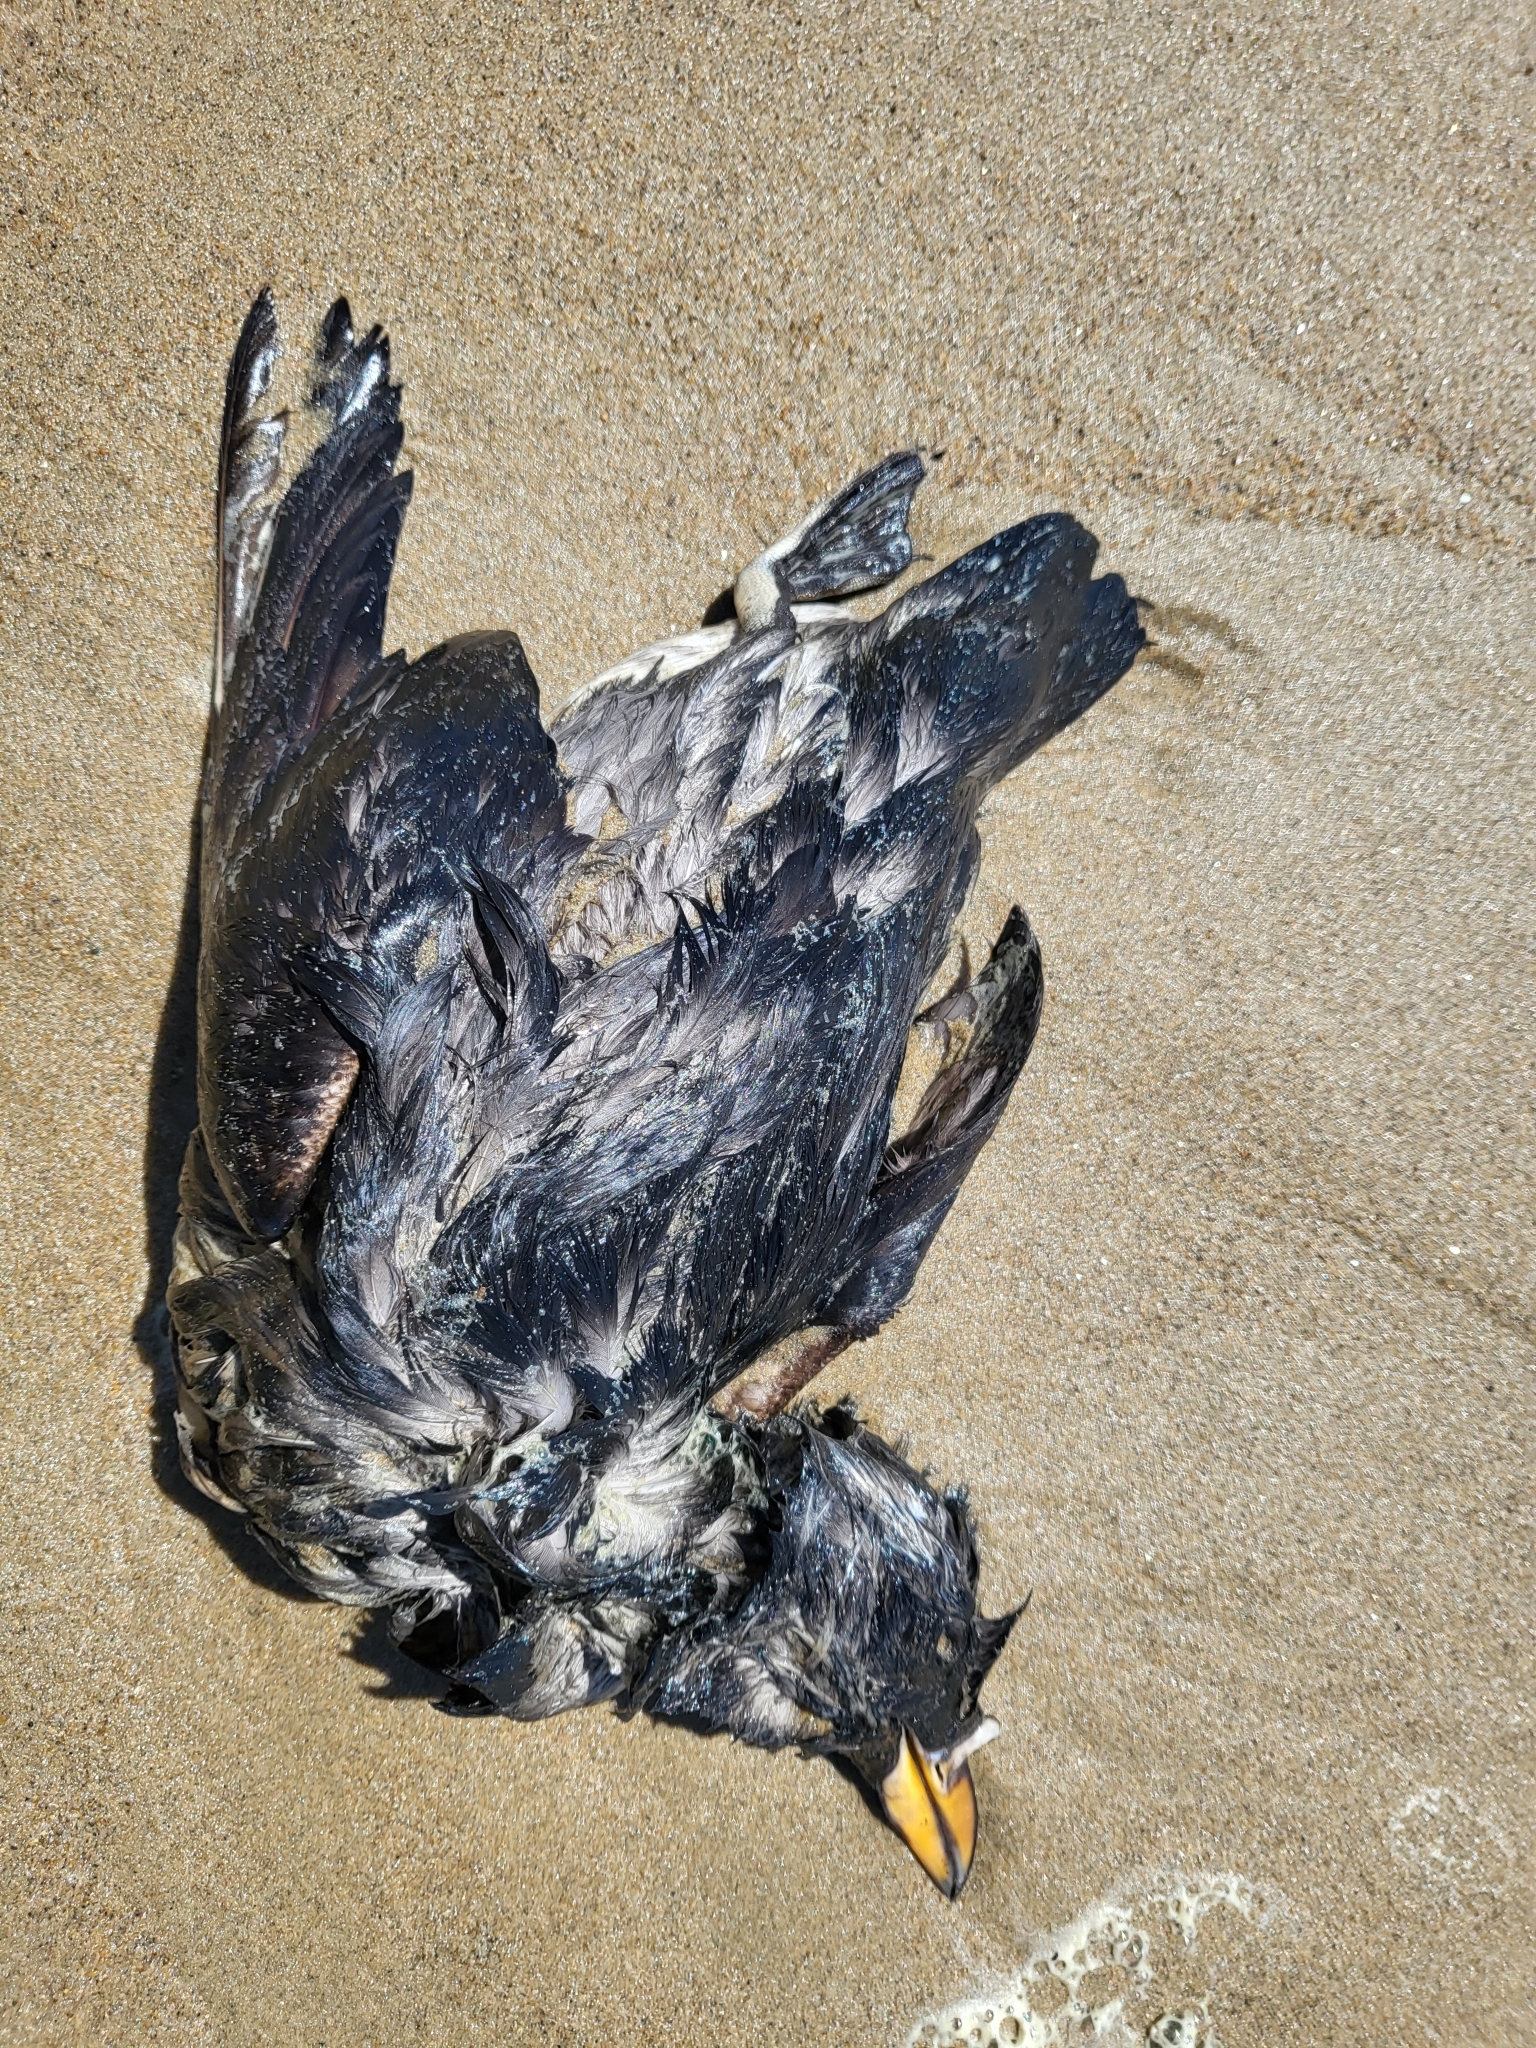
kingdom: Animalia
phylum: Chordata
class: Aves
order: Charadriiformes
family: Alcidae
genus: Cerorhinca
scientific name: Cerorhinca monocerata
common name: Rhinoceros auklet
